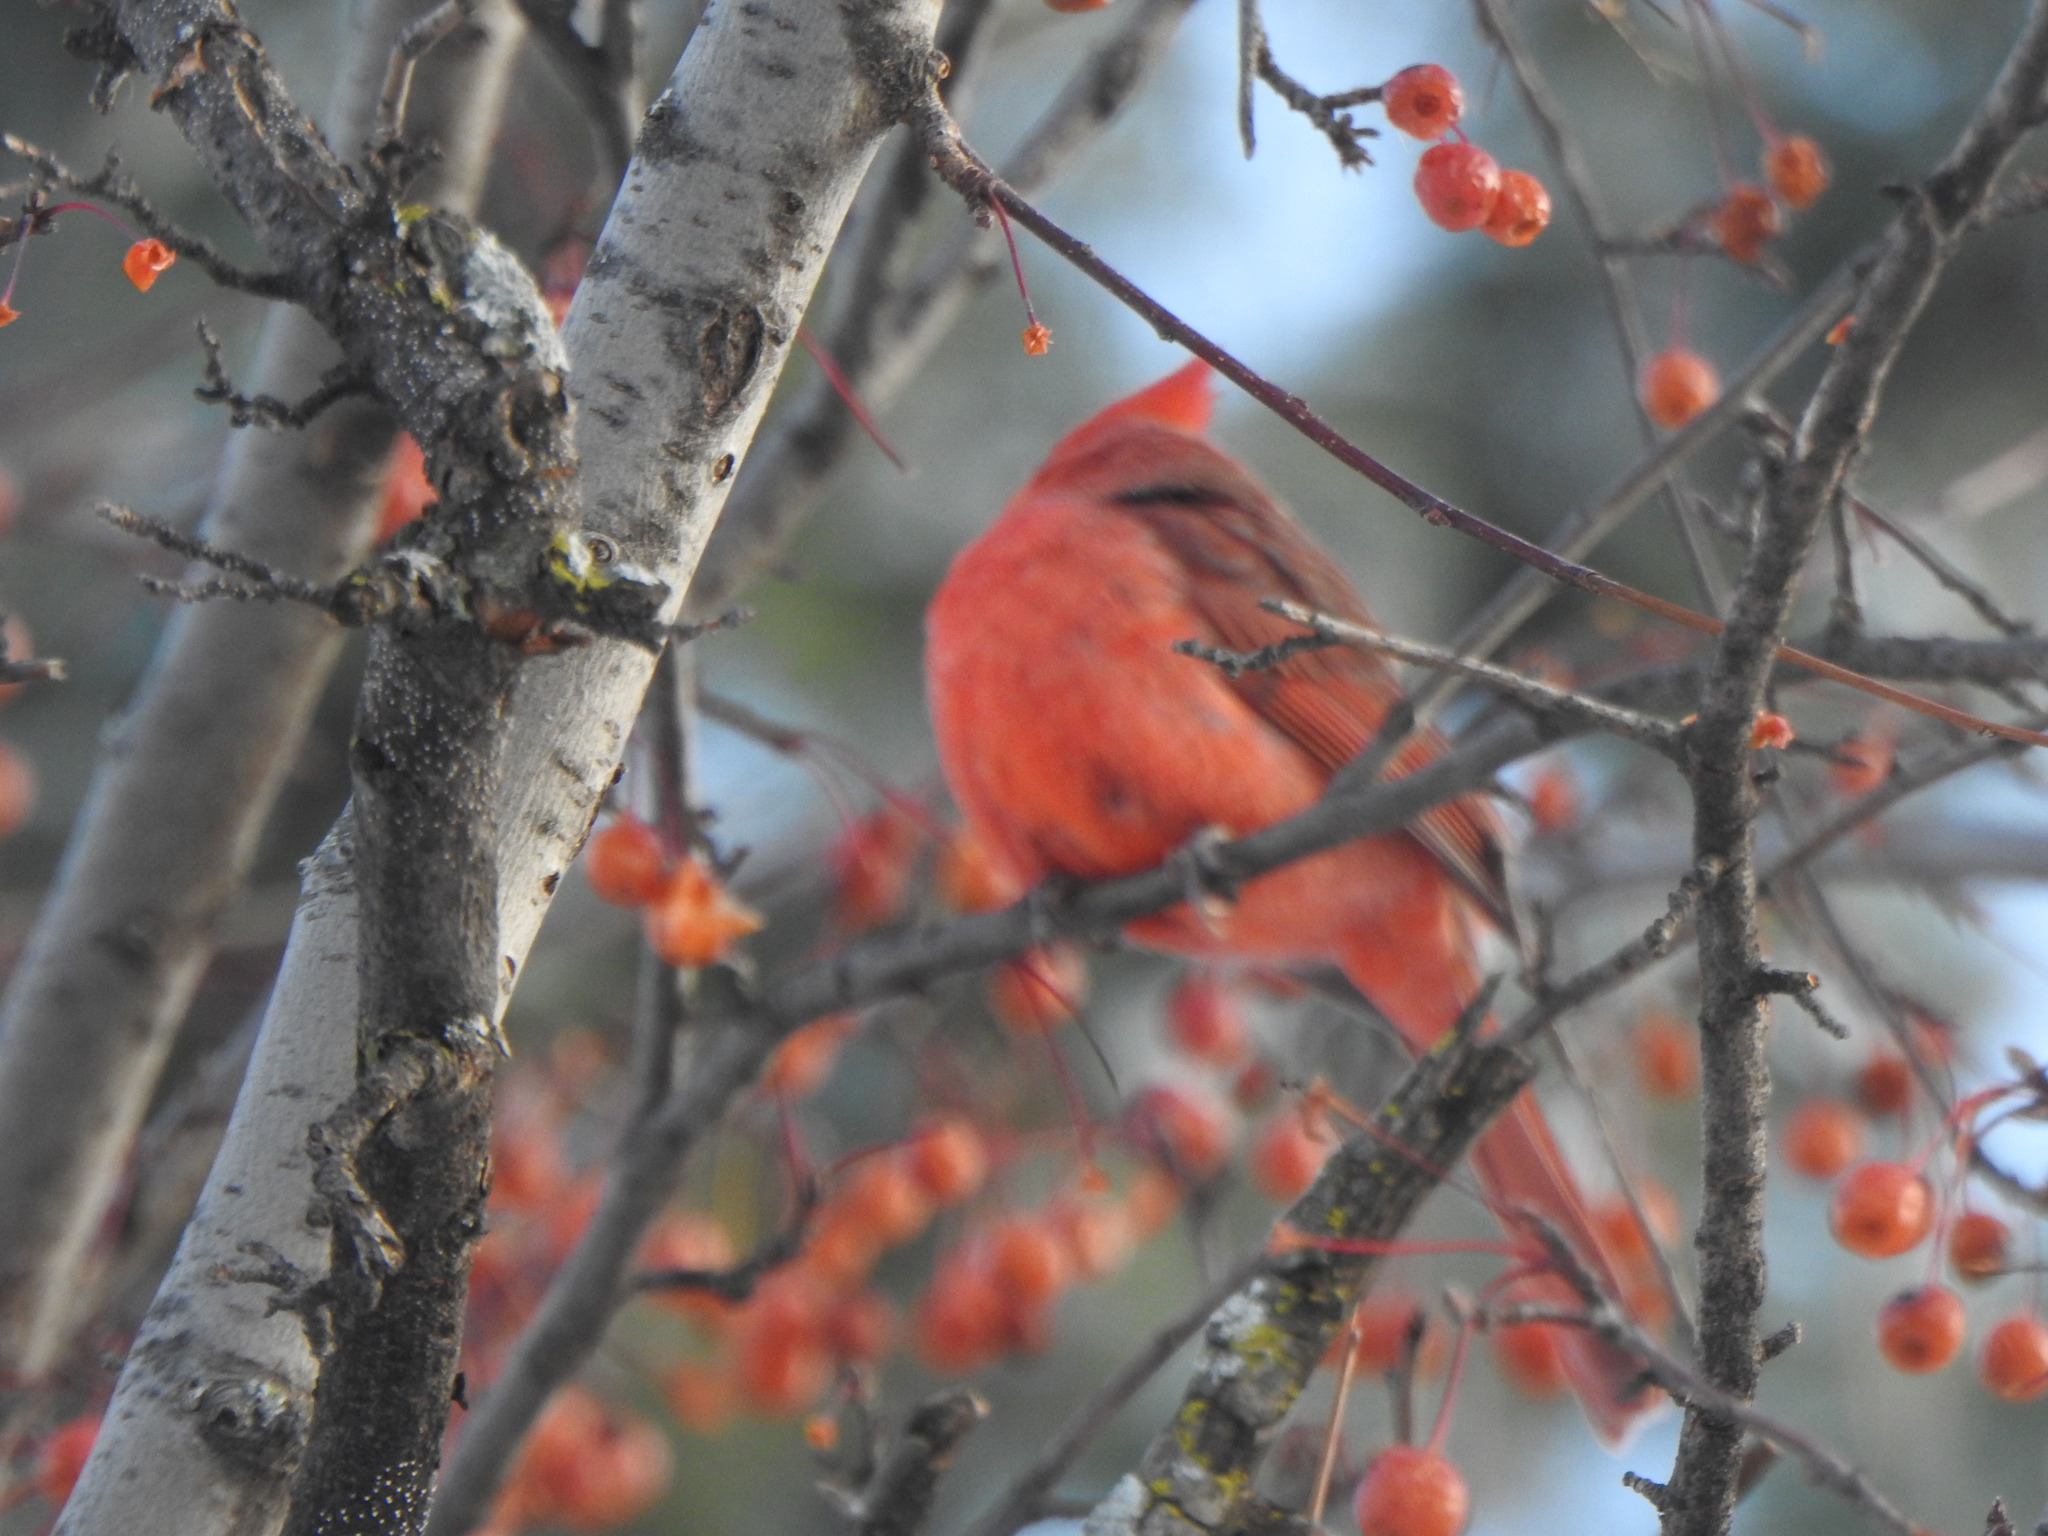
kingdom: Animalia
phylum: Chordata
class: Aves
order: Passeriformes
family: Cardinalidae
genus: Cardinalis
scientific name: Cardinalis cardinalis
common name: Northern cardinal
